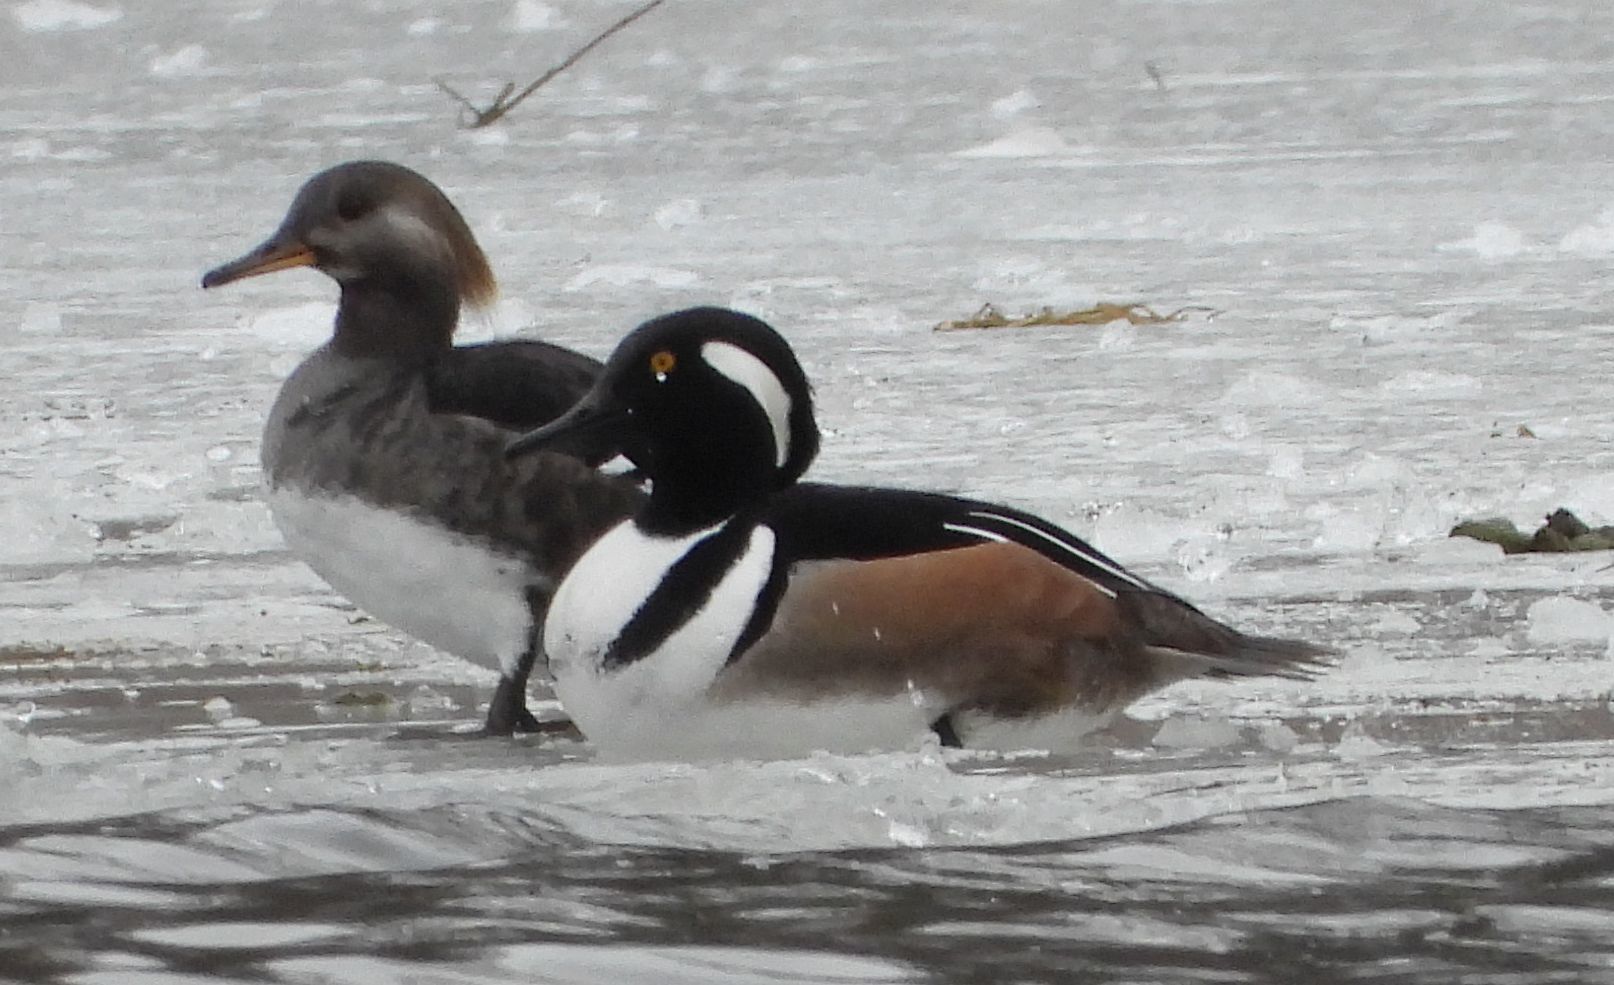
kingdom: Animalia
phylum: Chordata
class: Aves
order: Anseriformes
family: Anatidae
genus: Lophodytes
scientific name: Lophodytes cucullatus
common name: Hooded merganser
